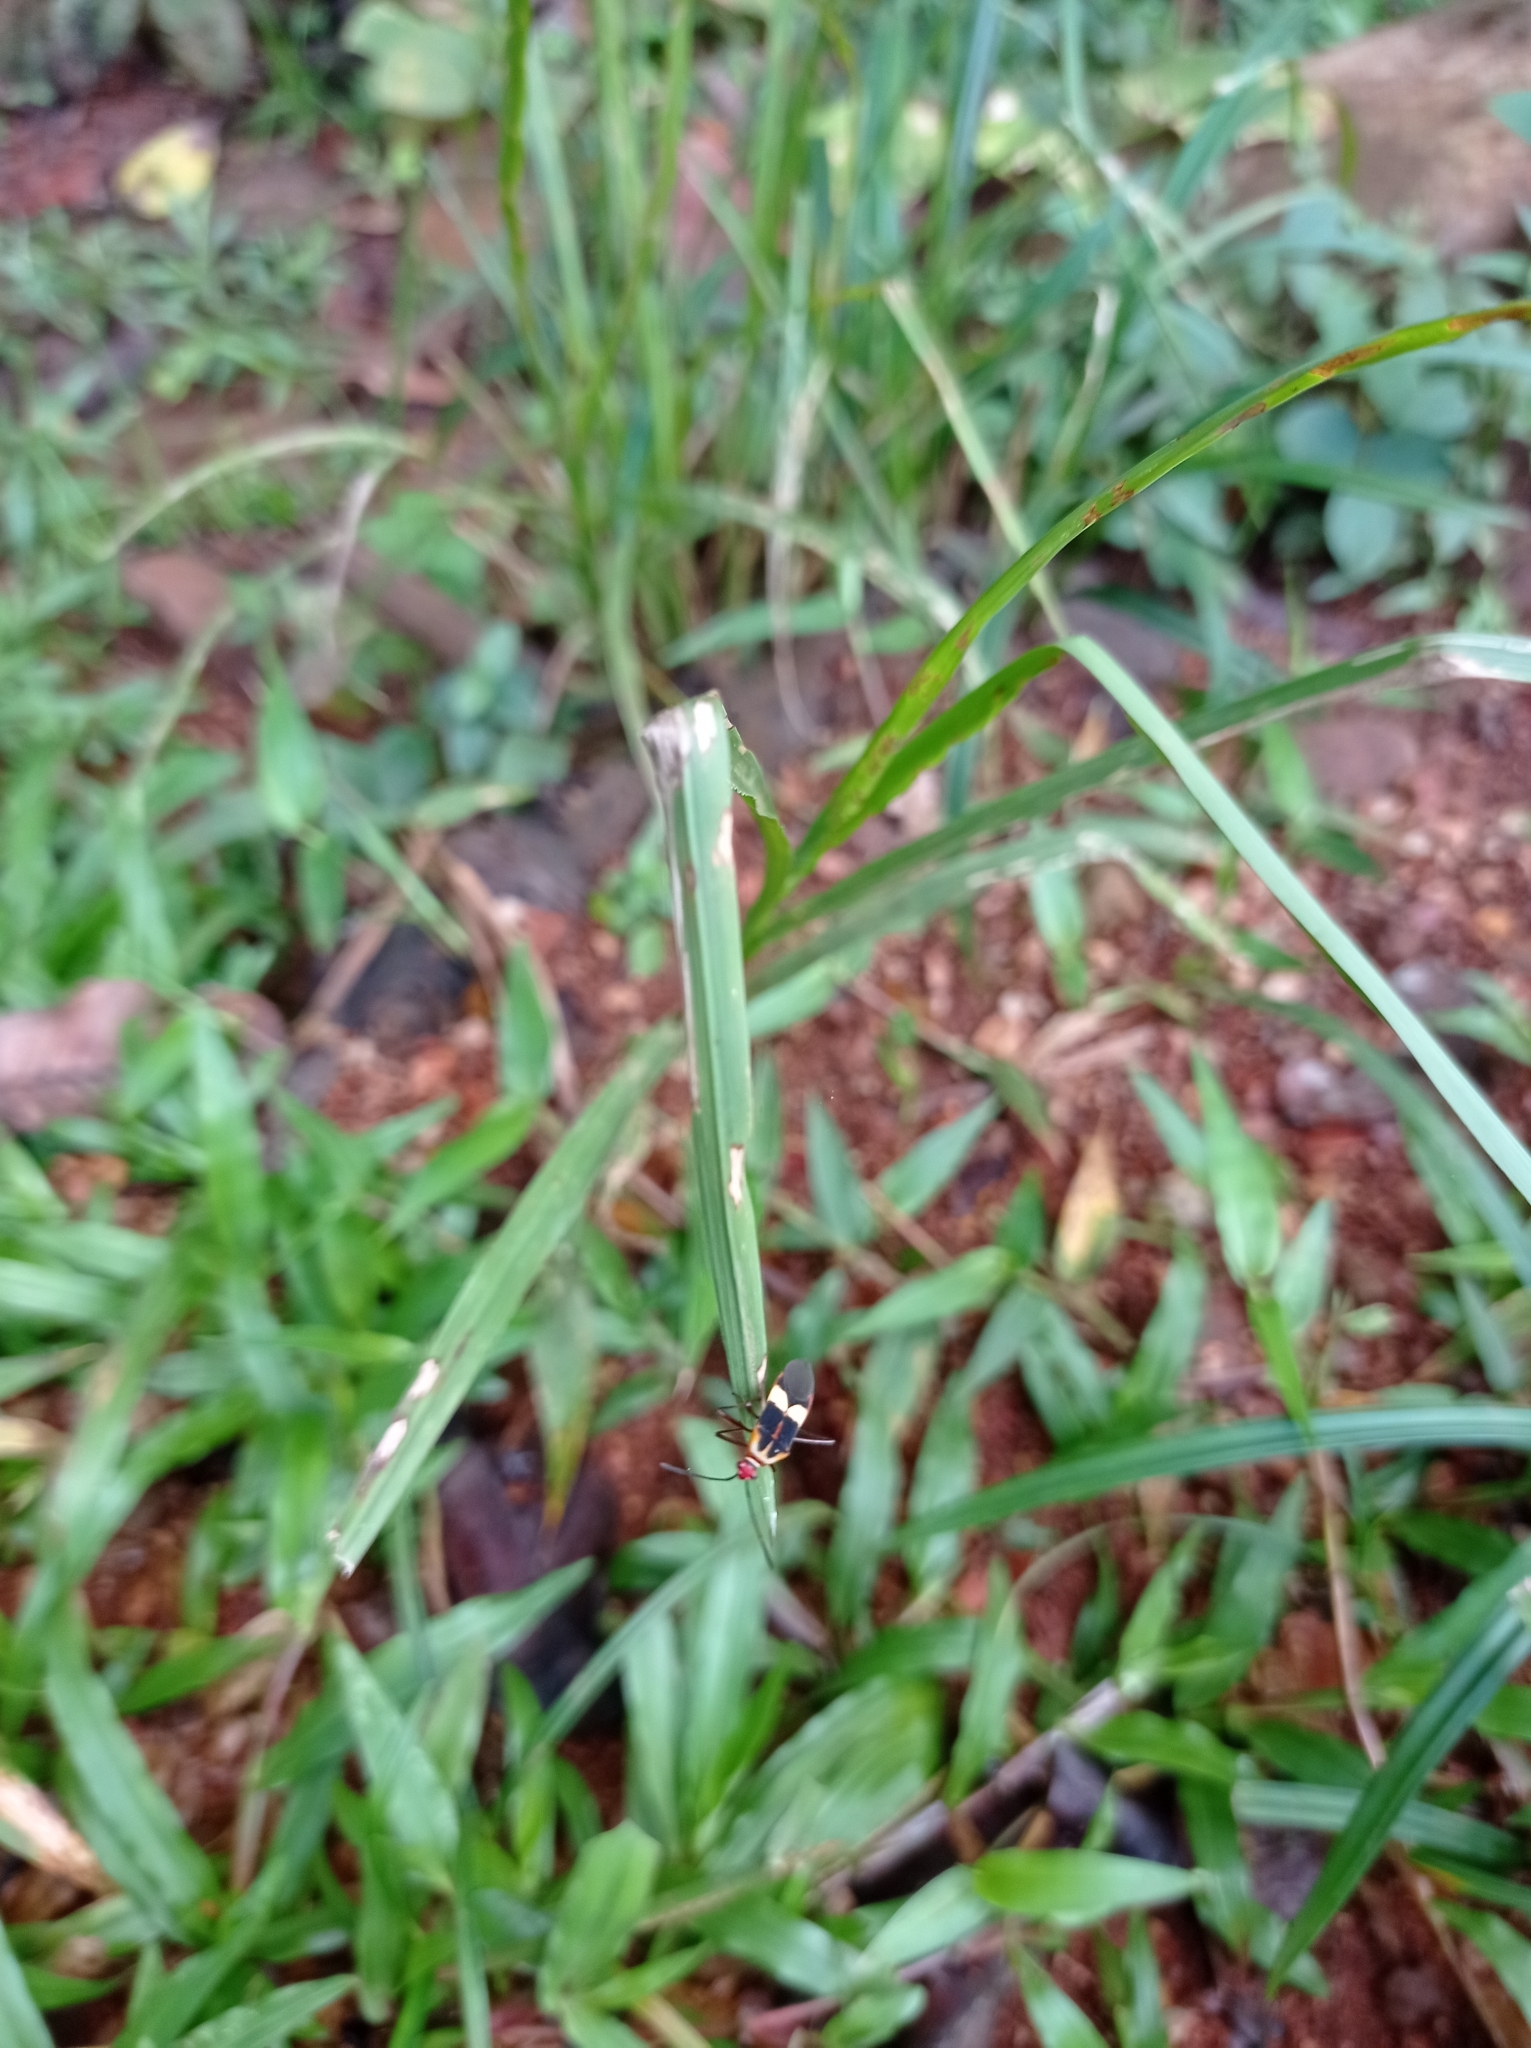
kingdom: Animalia
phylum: Arthropoda
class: Insecta
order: Hemiptera
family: Coreidae
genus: Hypselonotus
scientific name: Hypselonotus interruptus
